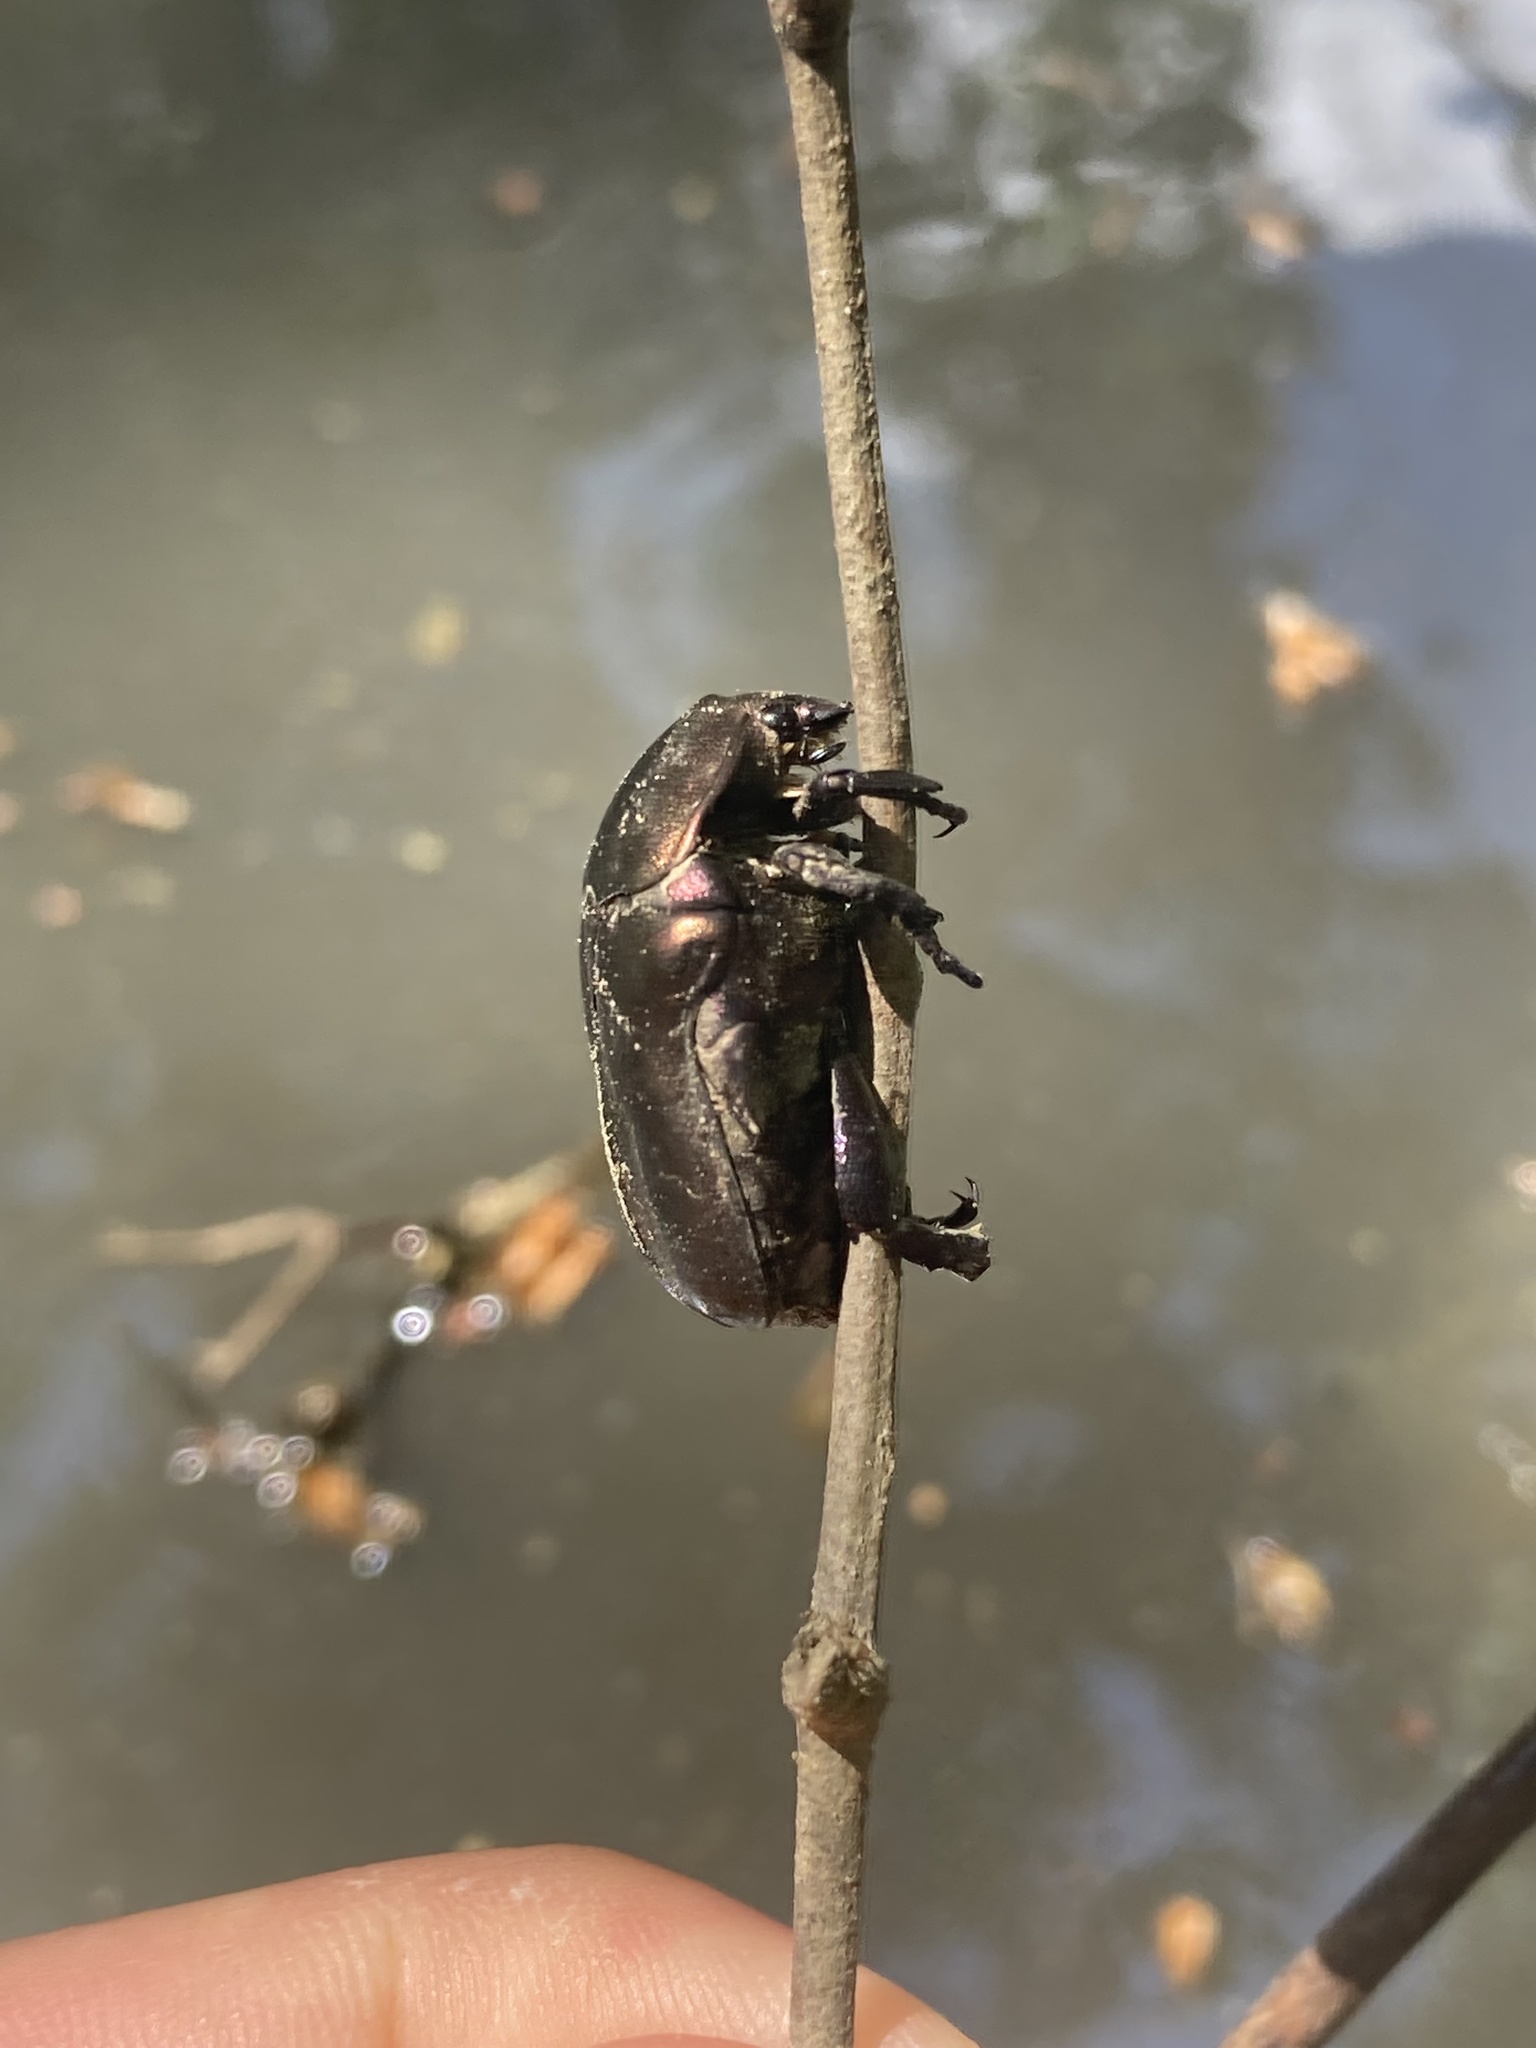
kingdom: Animalia
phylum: Arthropoda
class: Insecta
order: Coleoptera
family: Scarabaeidae
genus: Protaetia
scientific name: Protaetia cuprea
